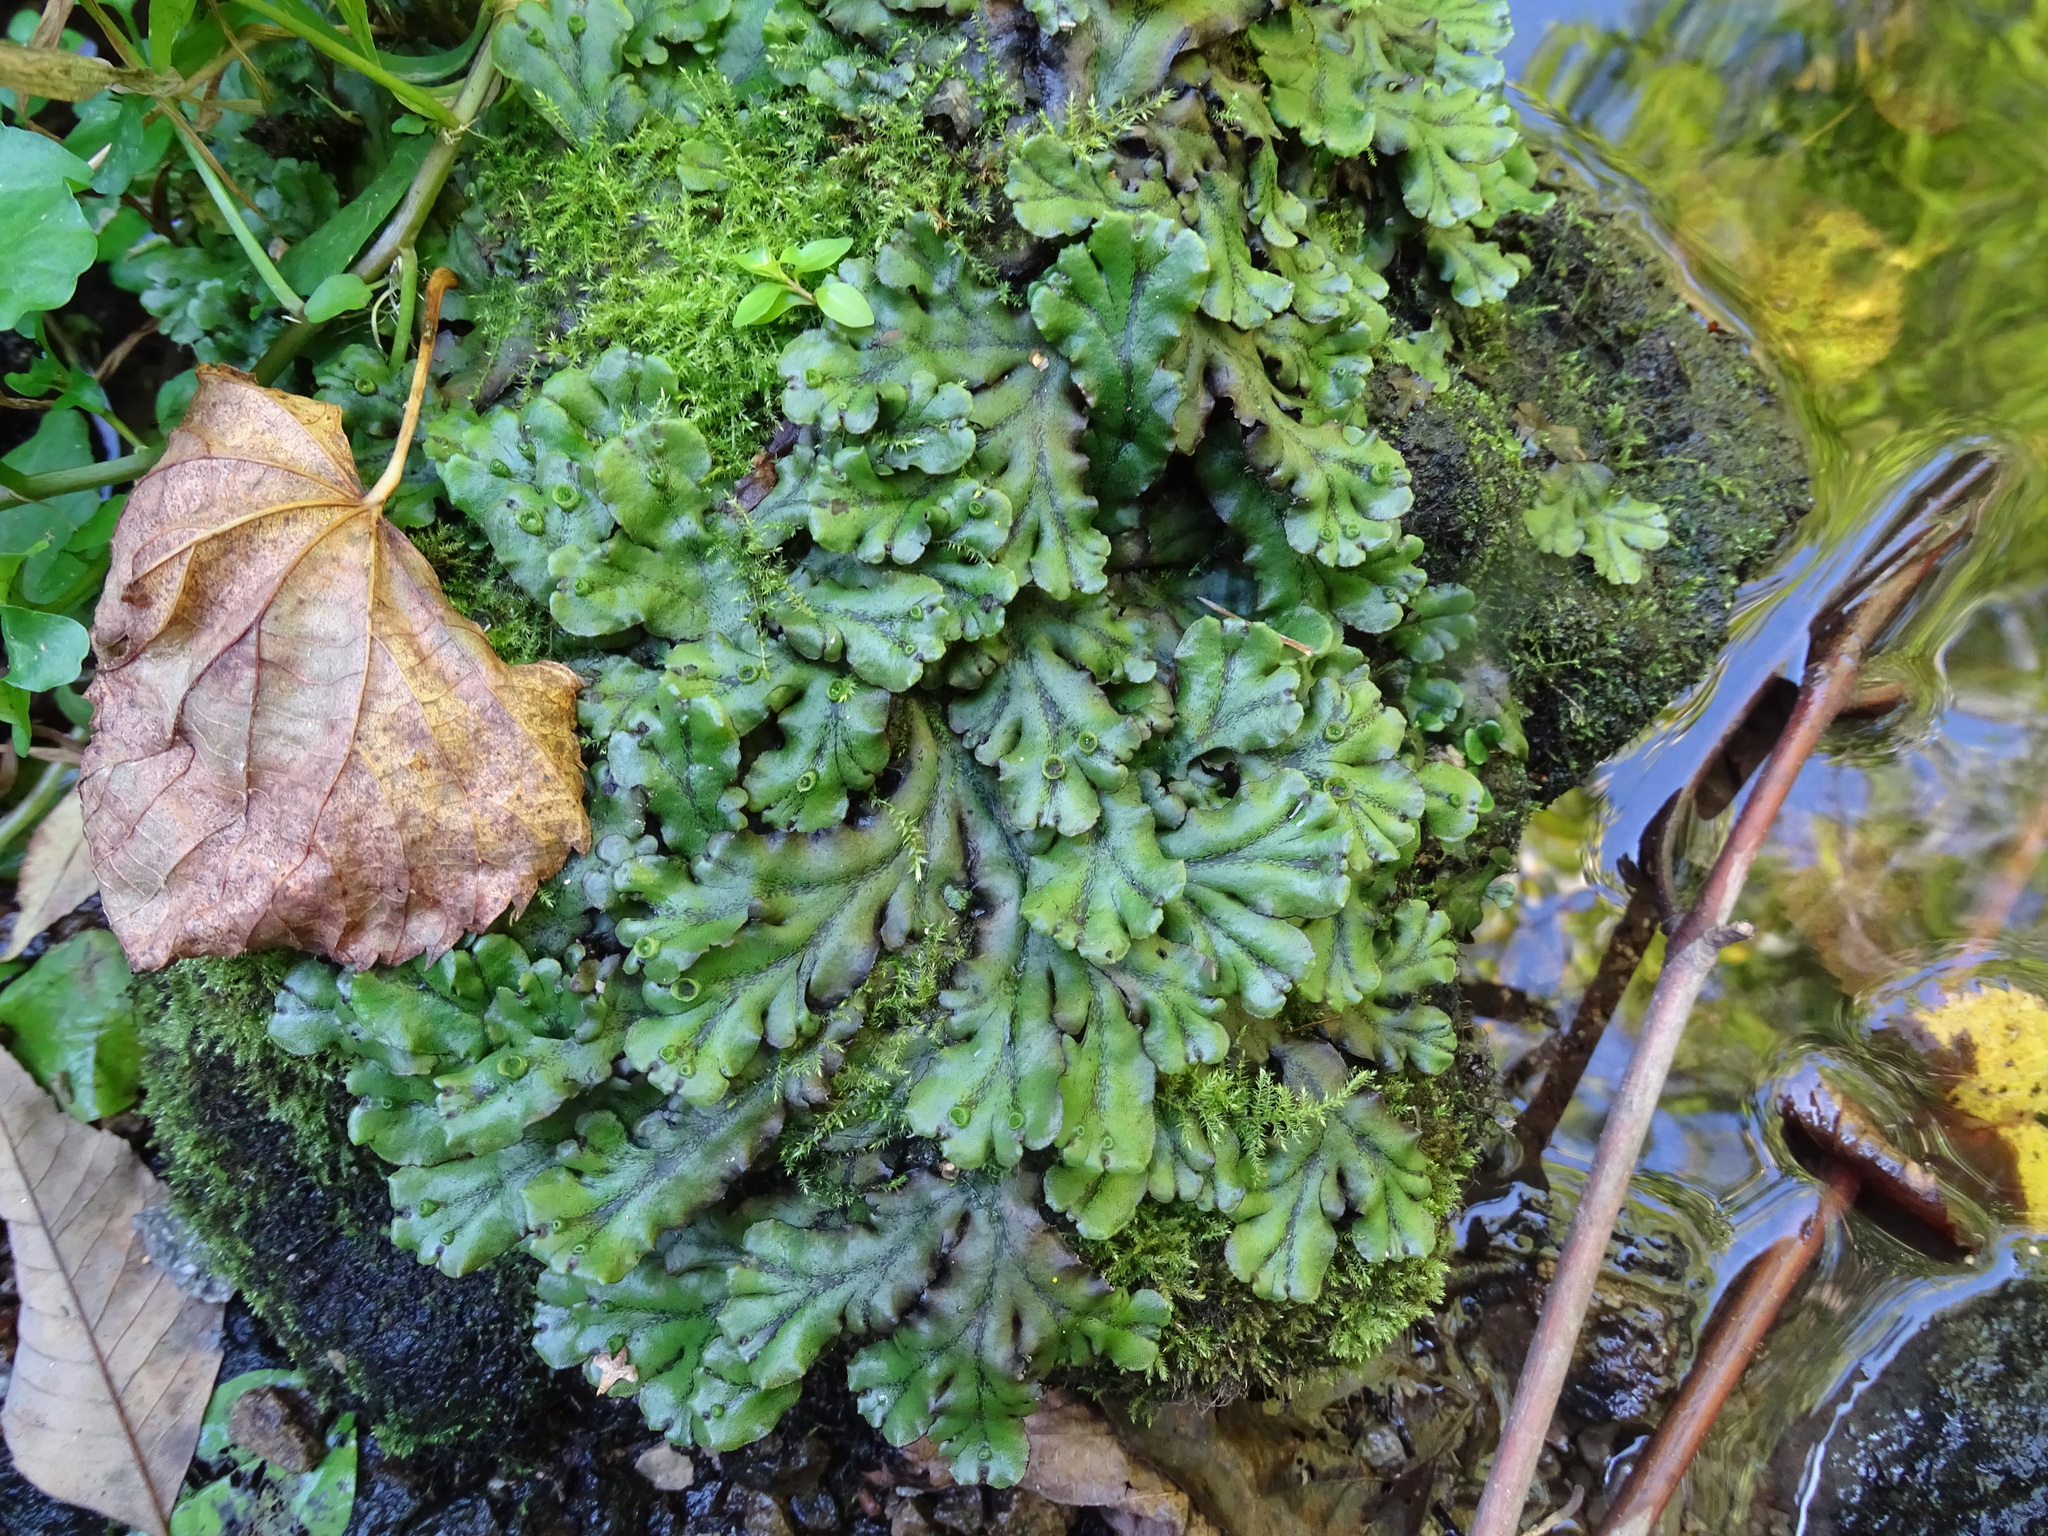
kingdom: Plantae
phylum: Marchantiophyta
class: Marchantiopsida
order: Marchantiales
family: Marchantiaceae
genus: Marchantia
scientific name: Marchantia polymorpha
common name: Common liverwort
